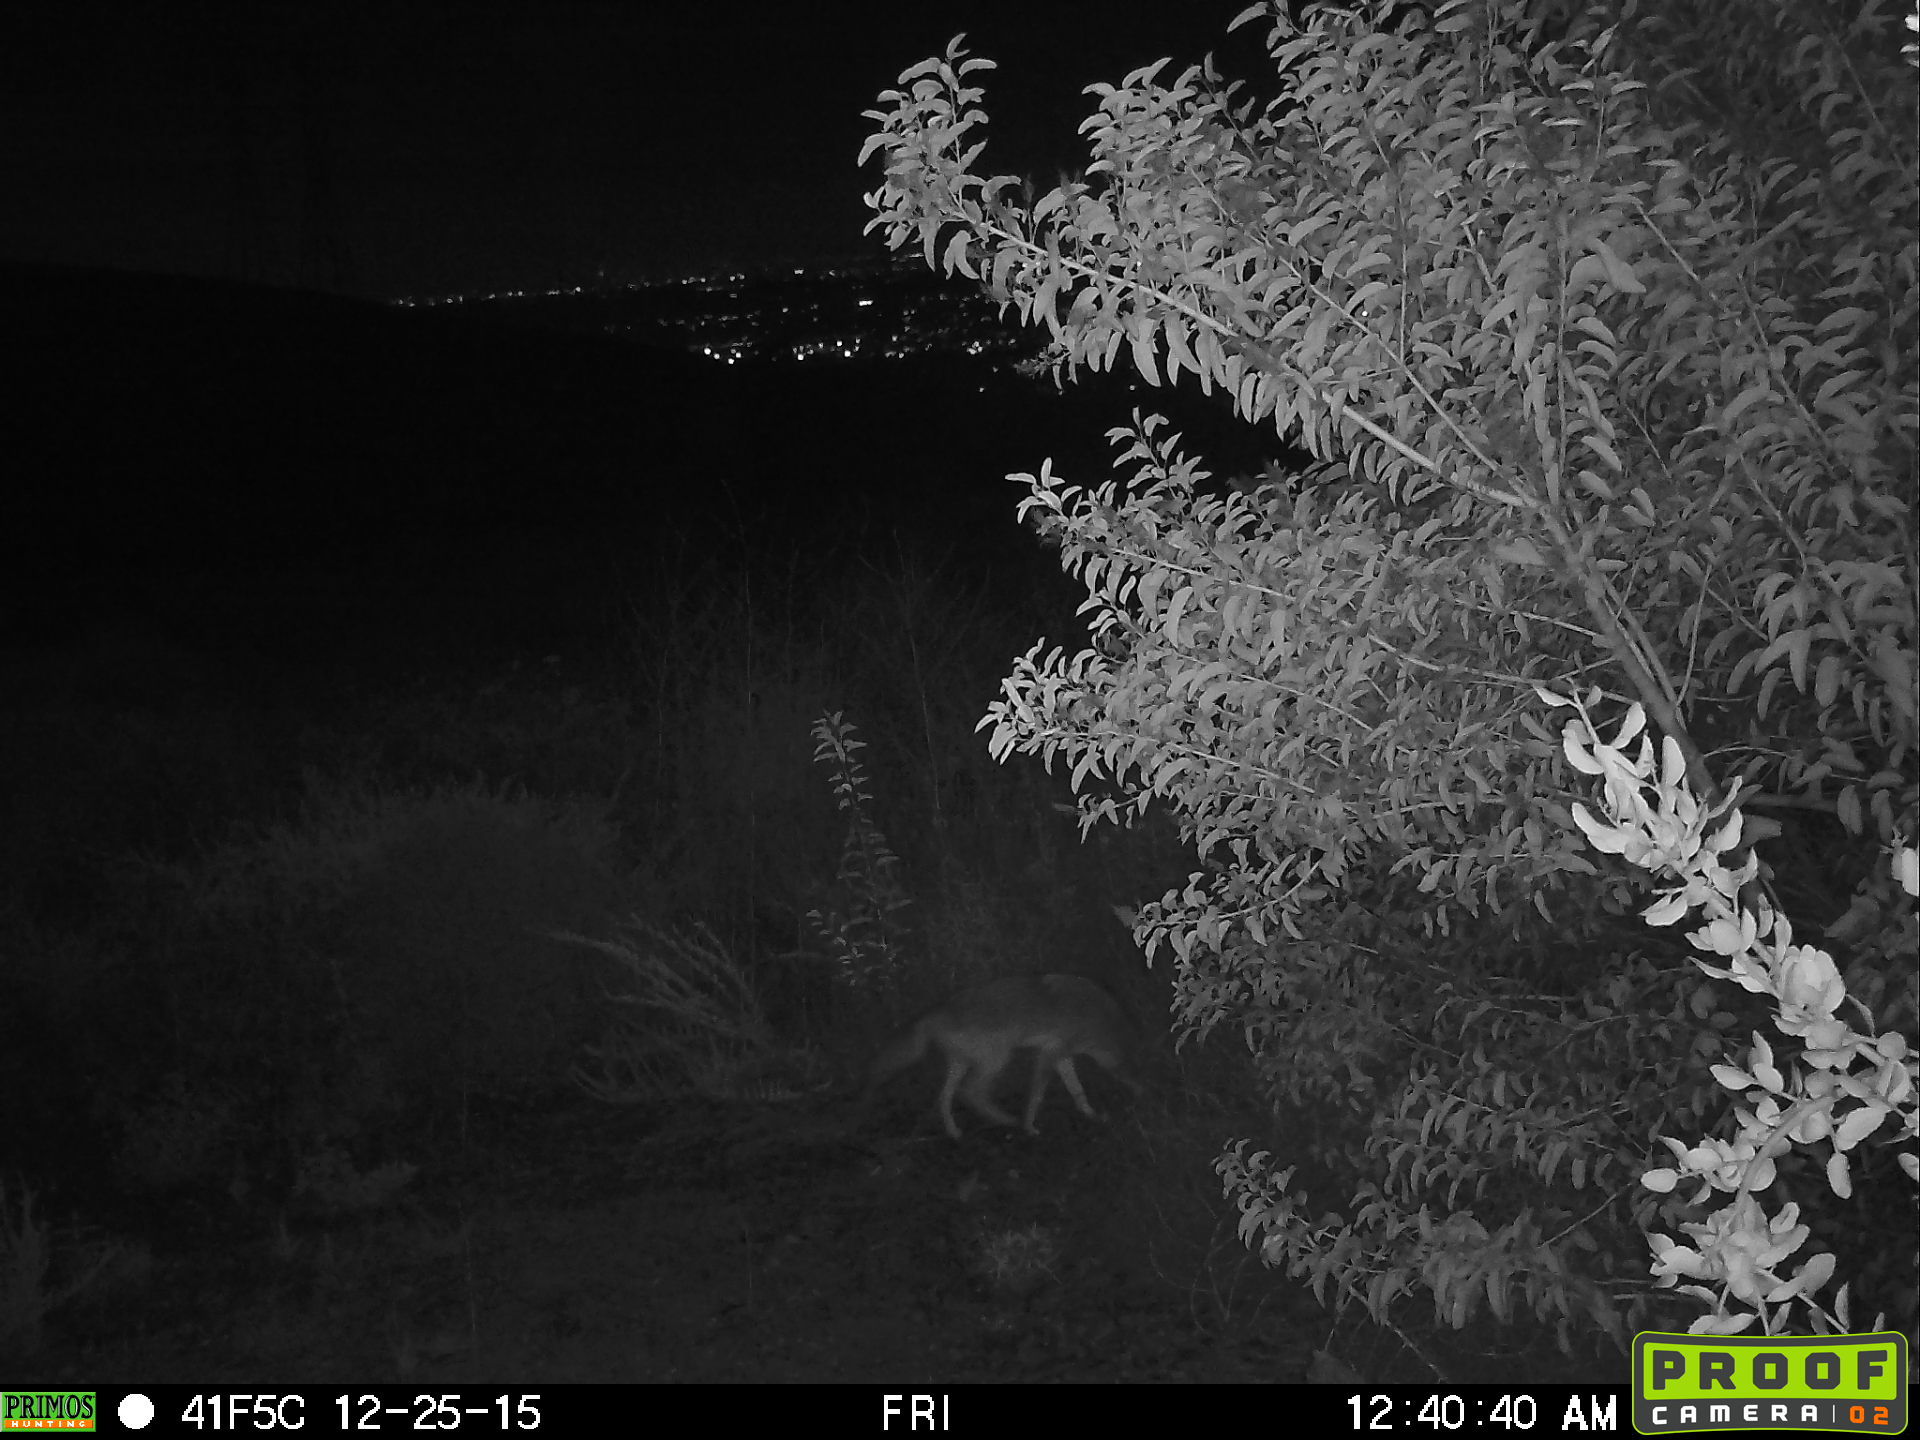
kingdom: Animalia
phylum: Chordata
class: Mammalia
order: Carnivora
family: Canidae
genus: Canis
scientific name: Canis latrans
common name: Coyote
